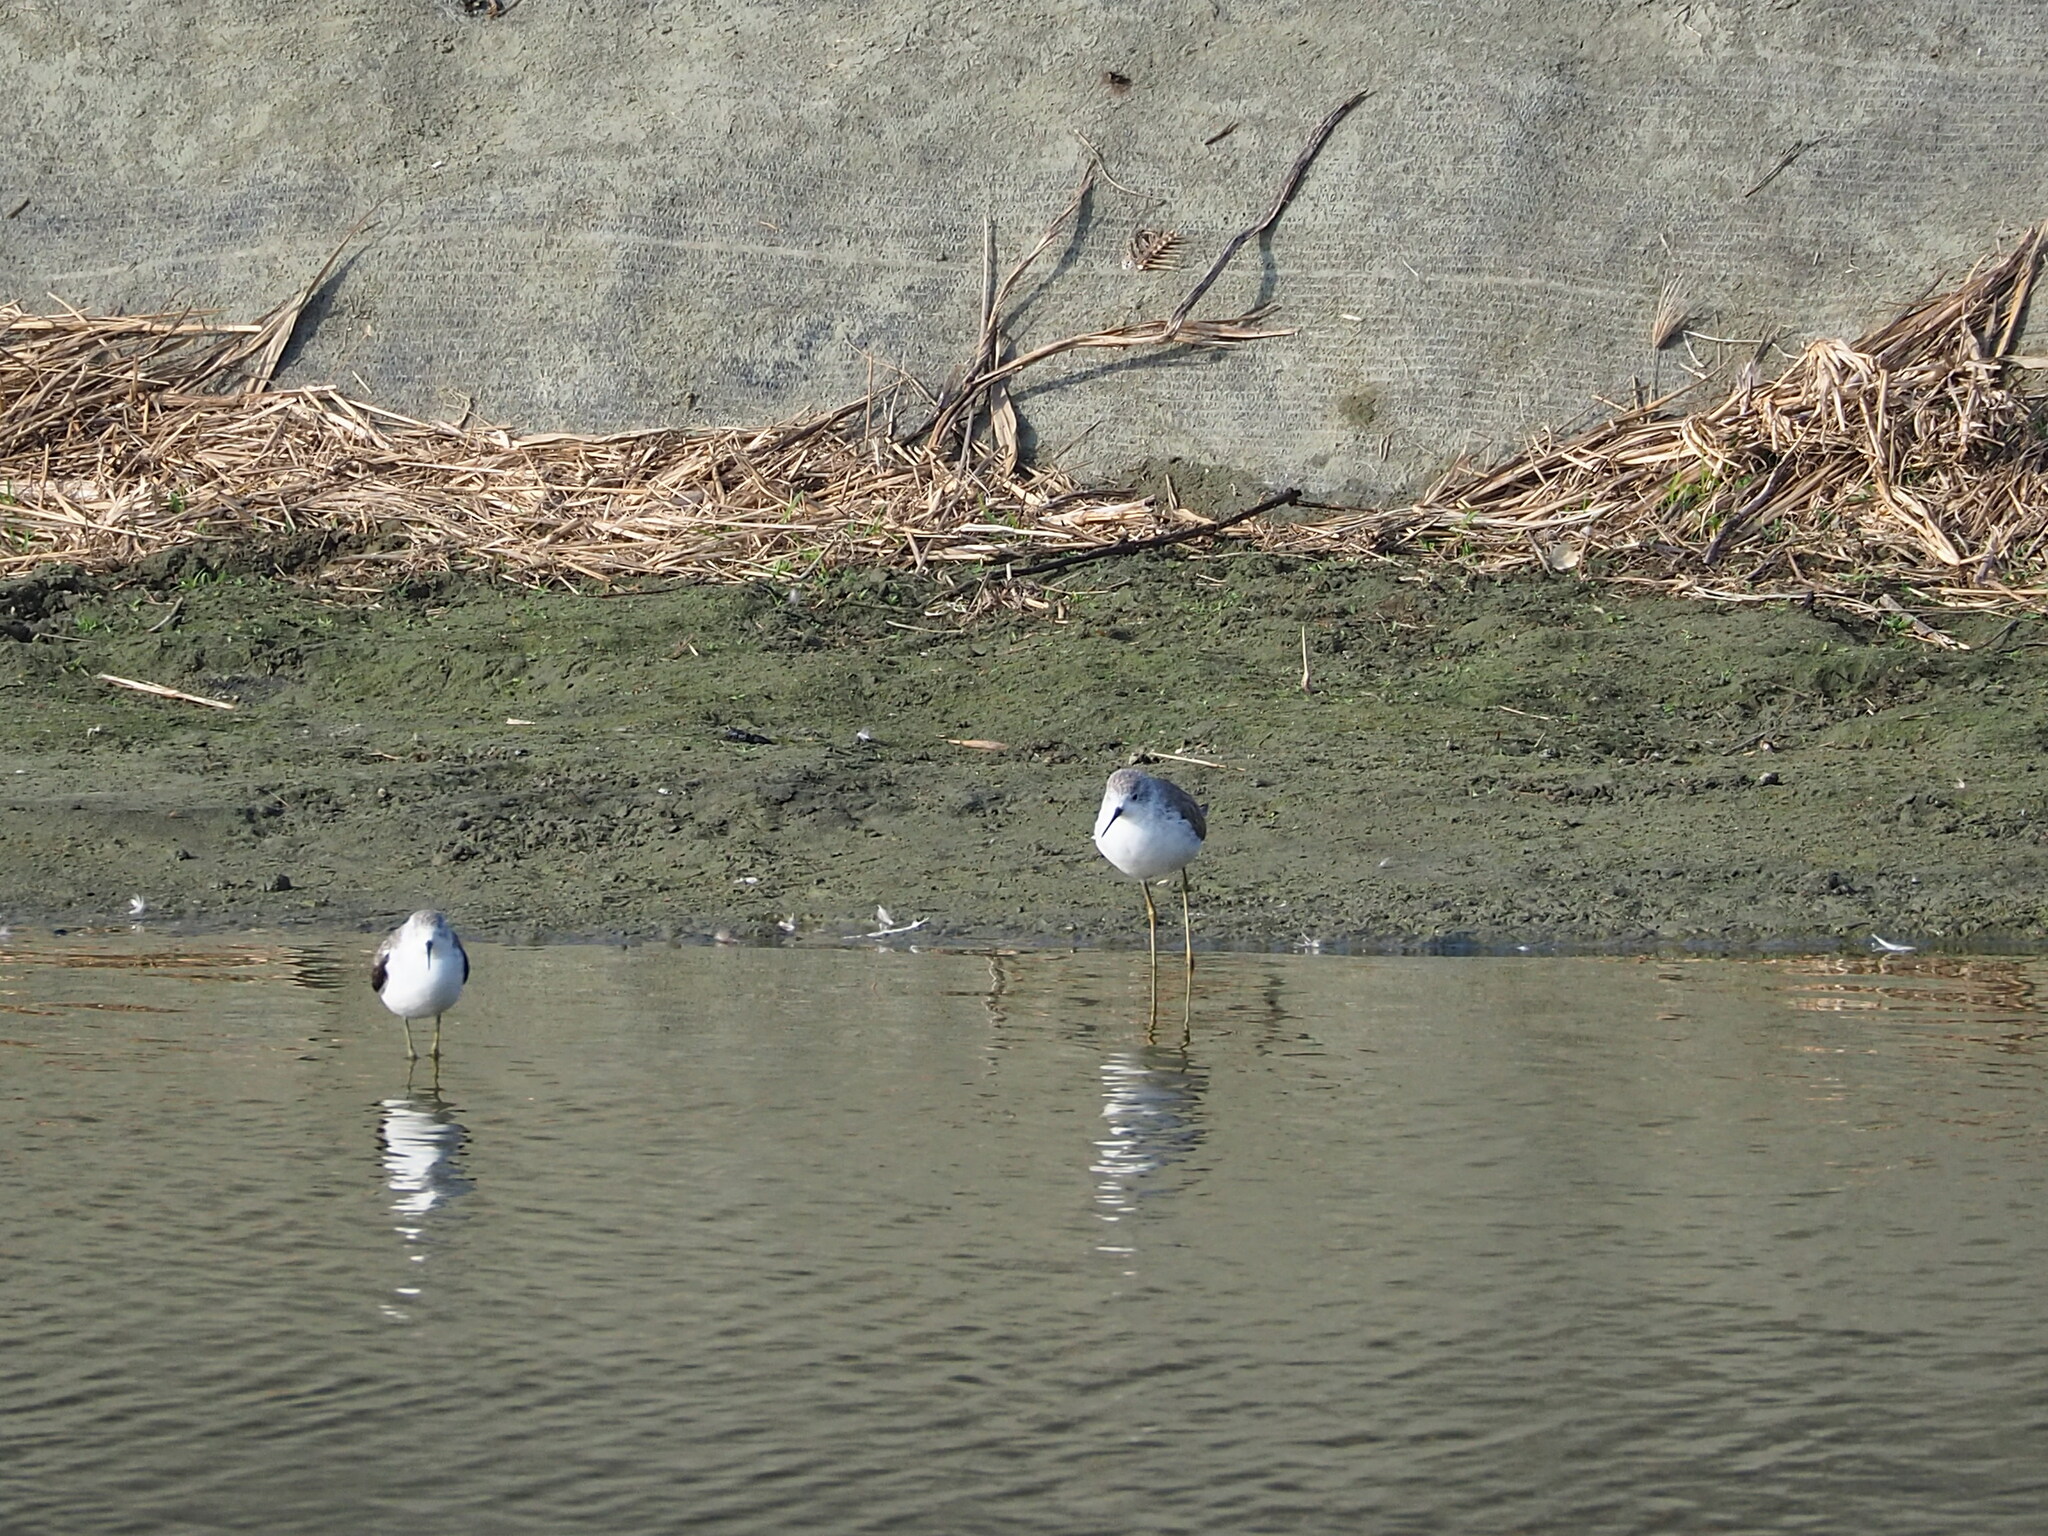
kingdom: Animalia
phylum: Chordata
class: Aves
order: Charadriiformes
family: Scolopacidae
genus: Tringa
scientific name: Tringa stagnatilis
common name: Marsh sandpiper
